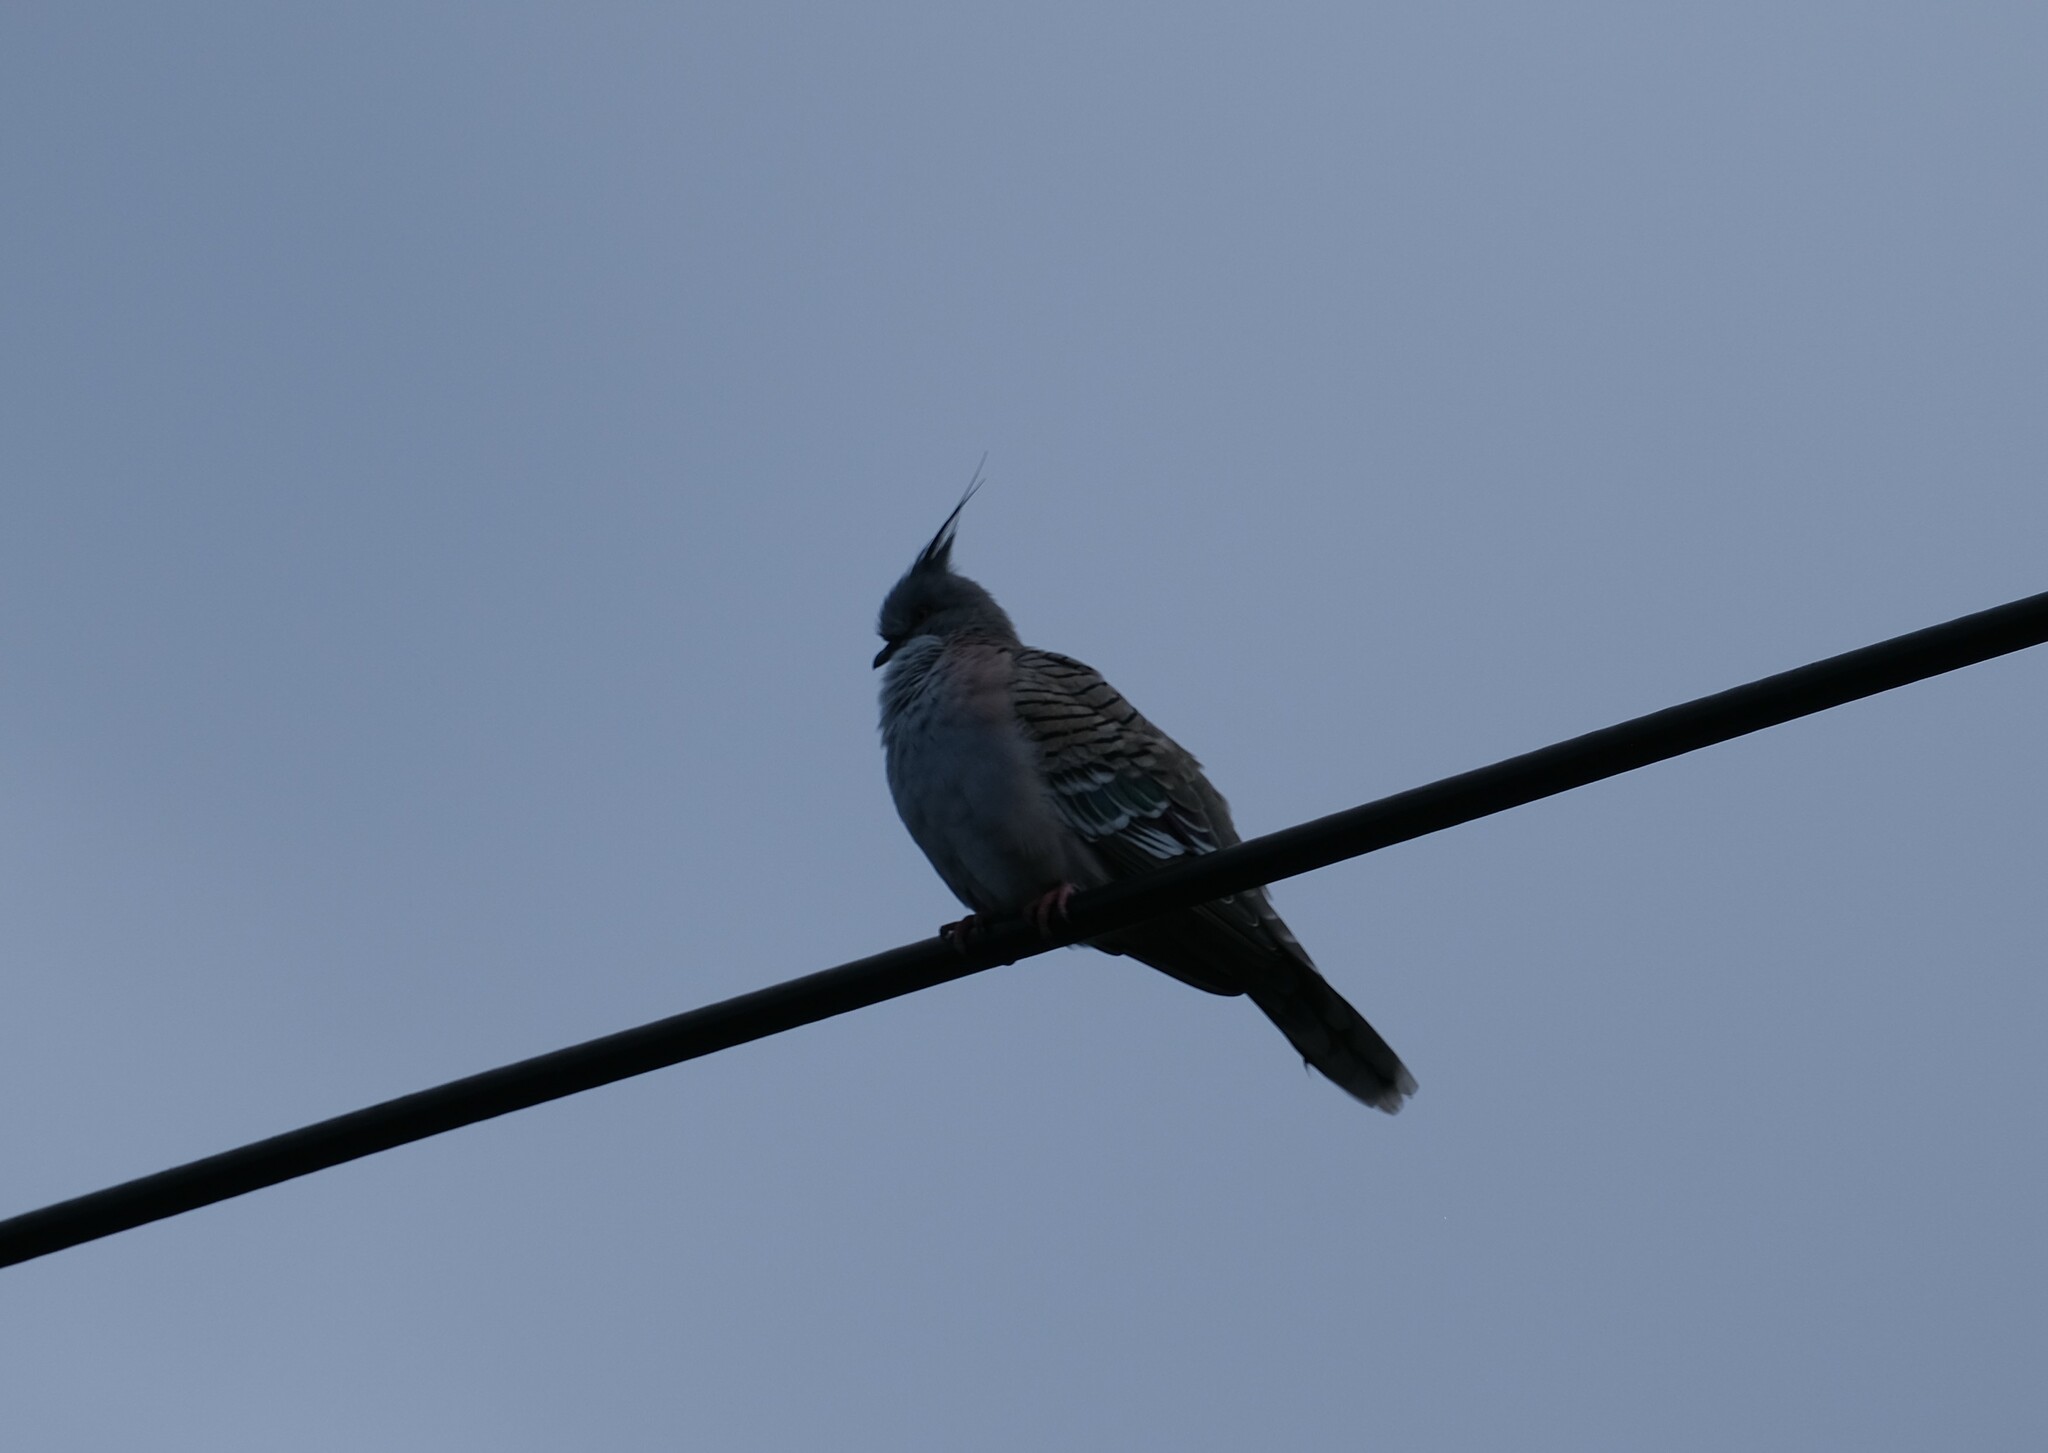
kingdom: Animalia
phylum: Chordata
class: Aves
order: Columbiformes
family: Columbidae
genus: Ocyphaps
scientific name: Ocyphaps lophotes
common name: Crested pigeon
